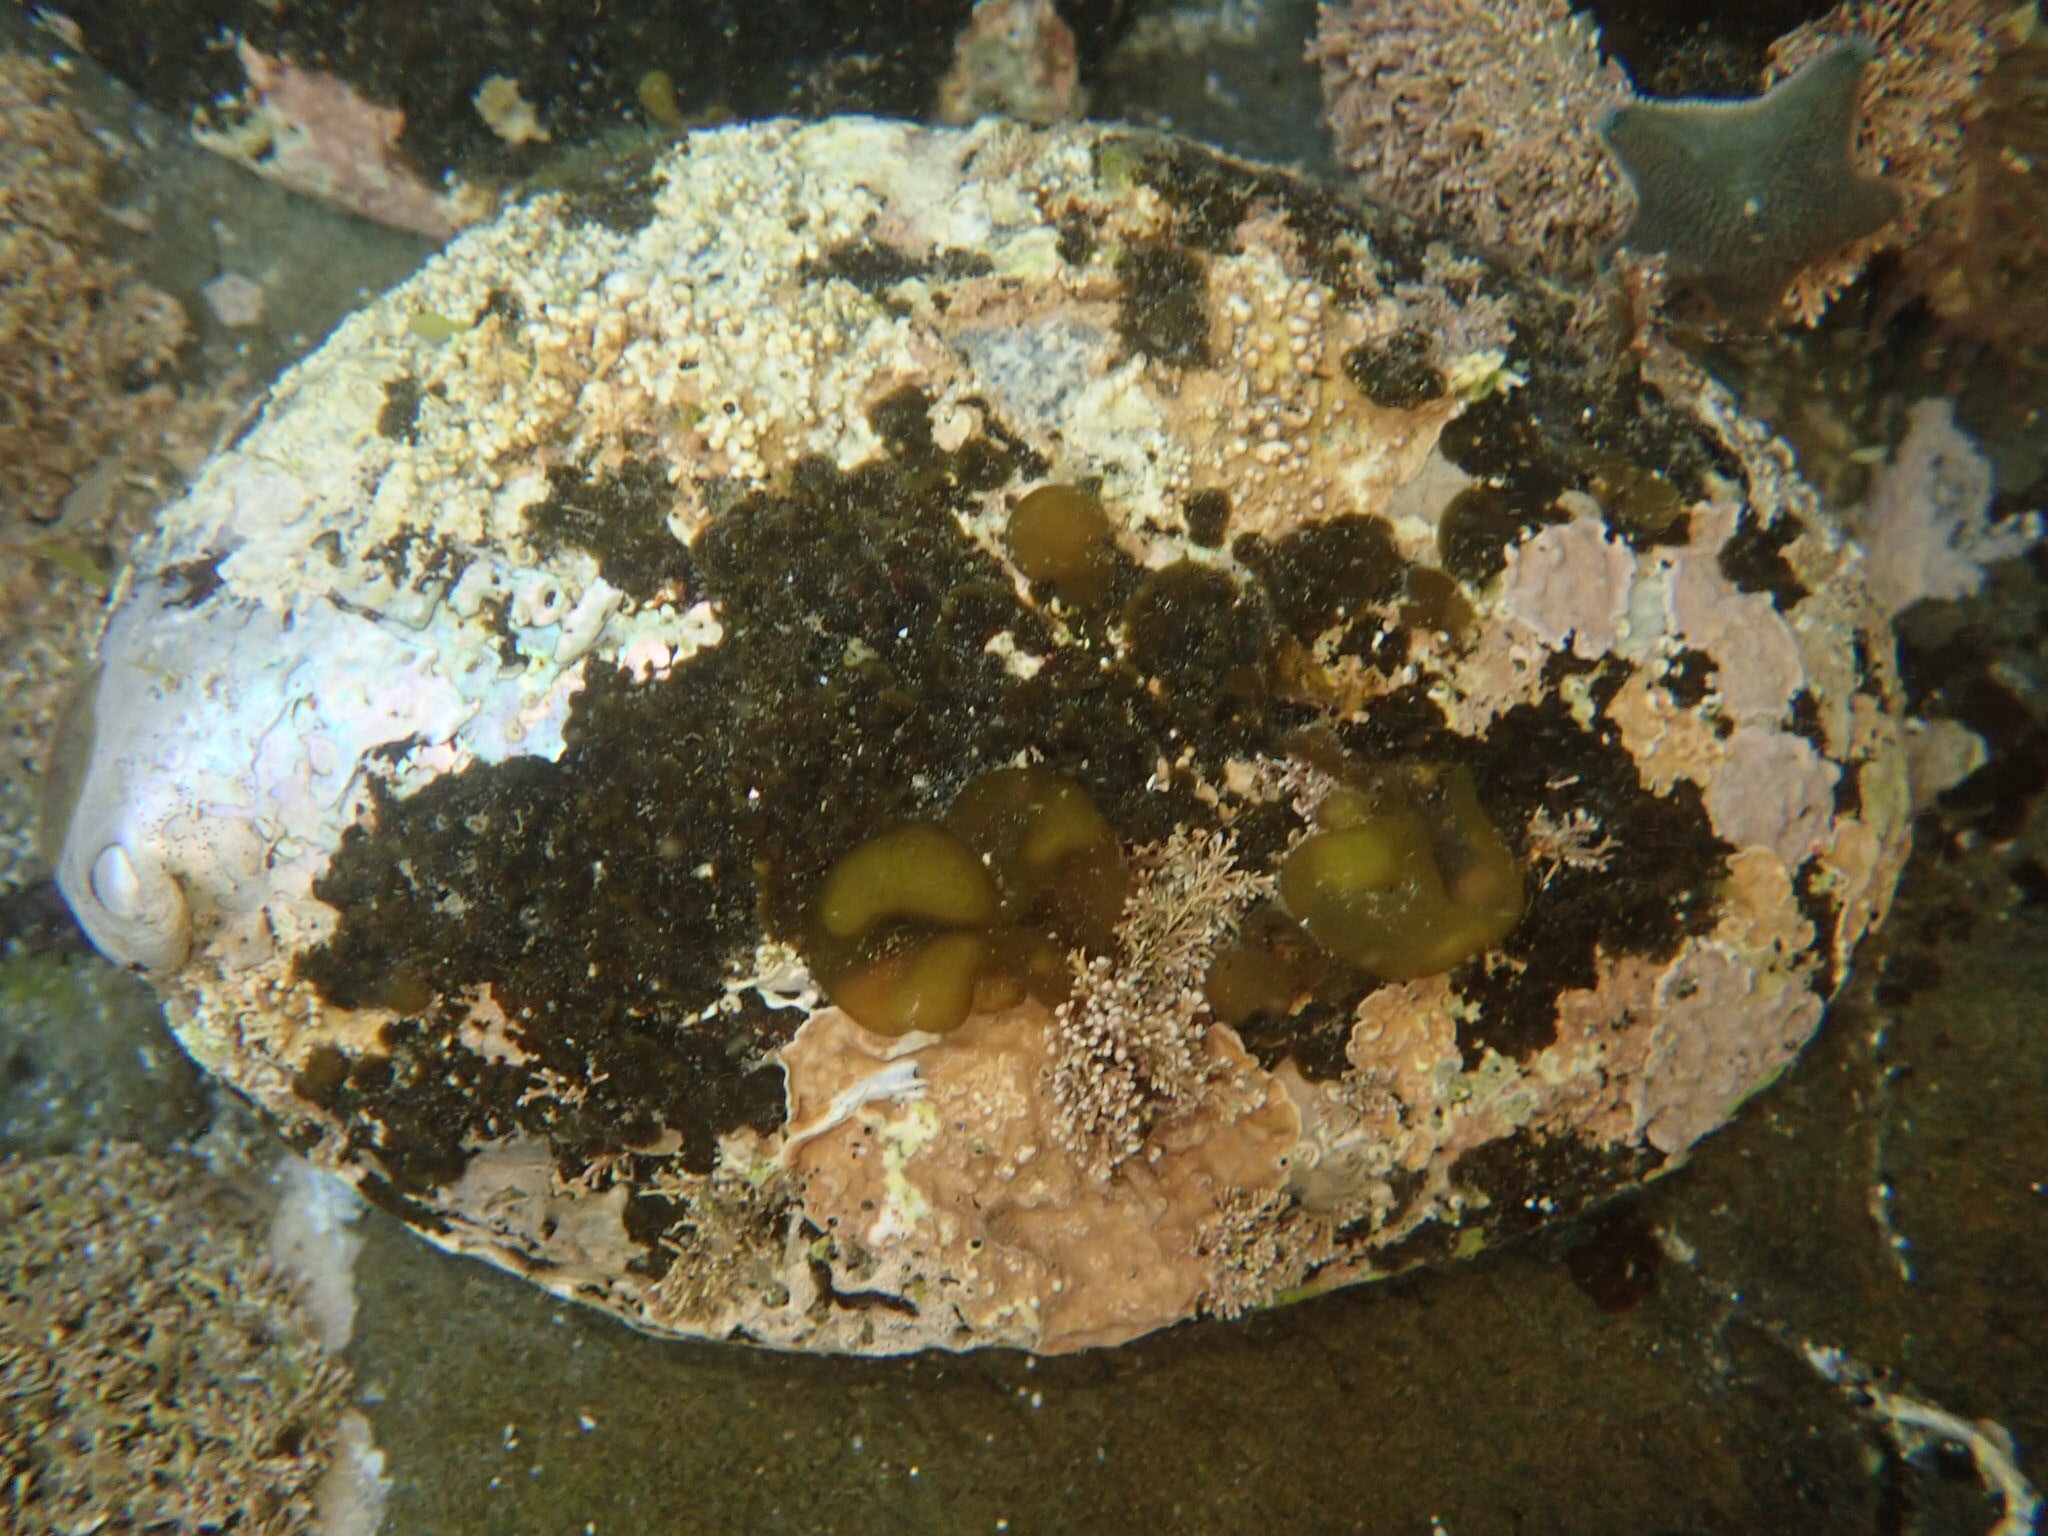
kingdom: Animalia
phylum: Mollusca
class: Gastropoda
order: Lepetellida
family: Haliotidae
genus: Haliotis
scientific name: Haliotis iris
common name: Abalone
